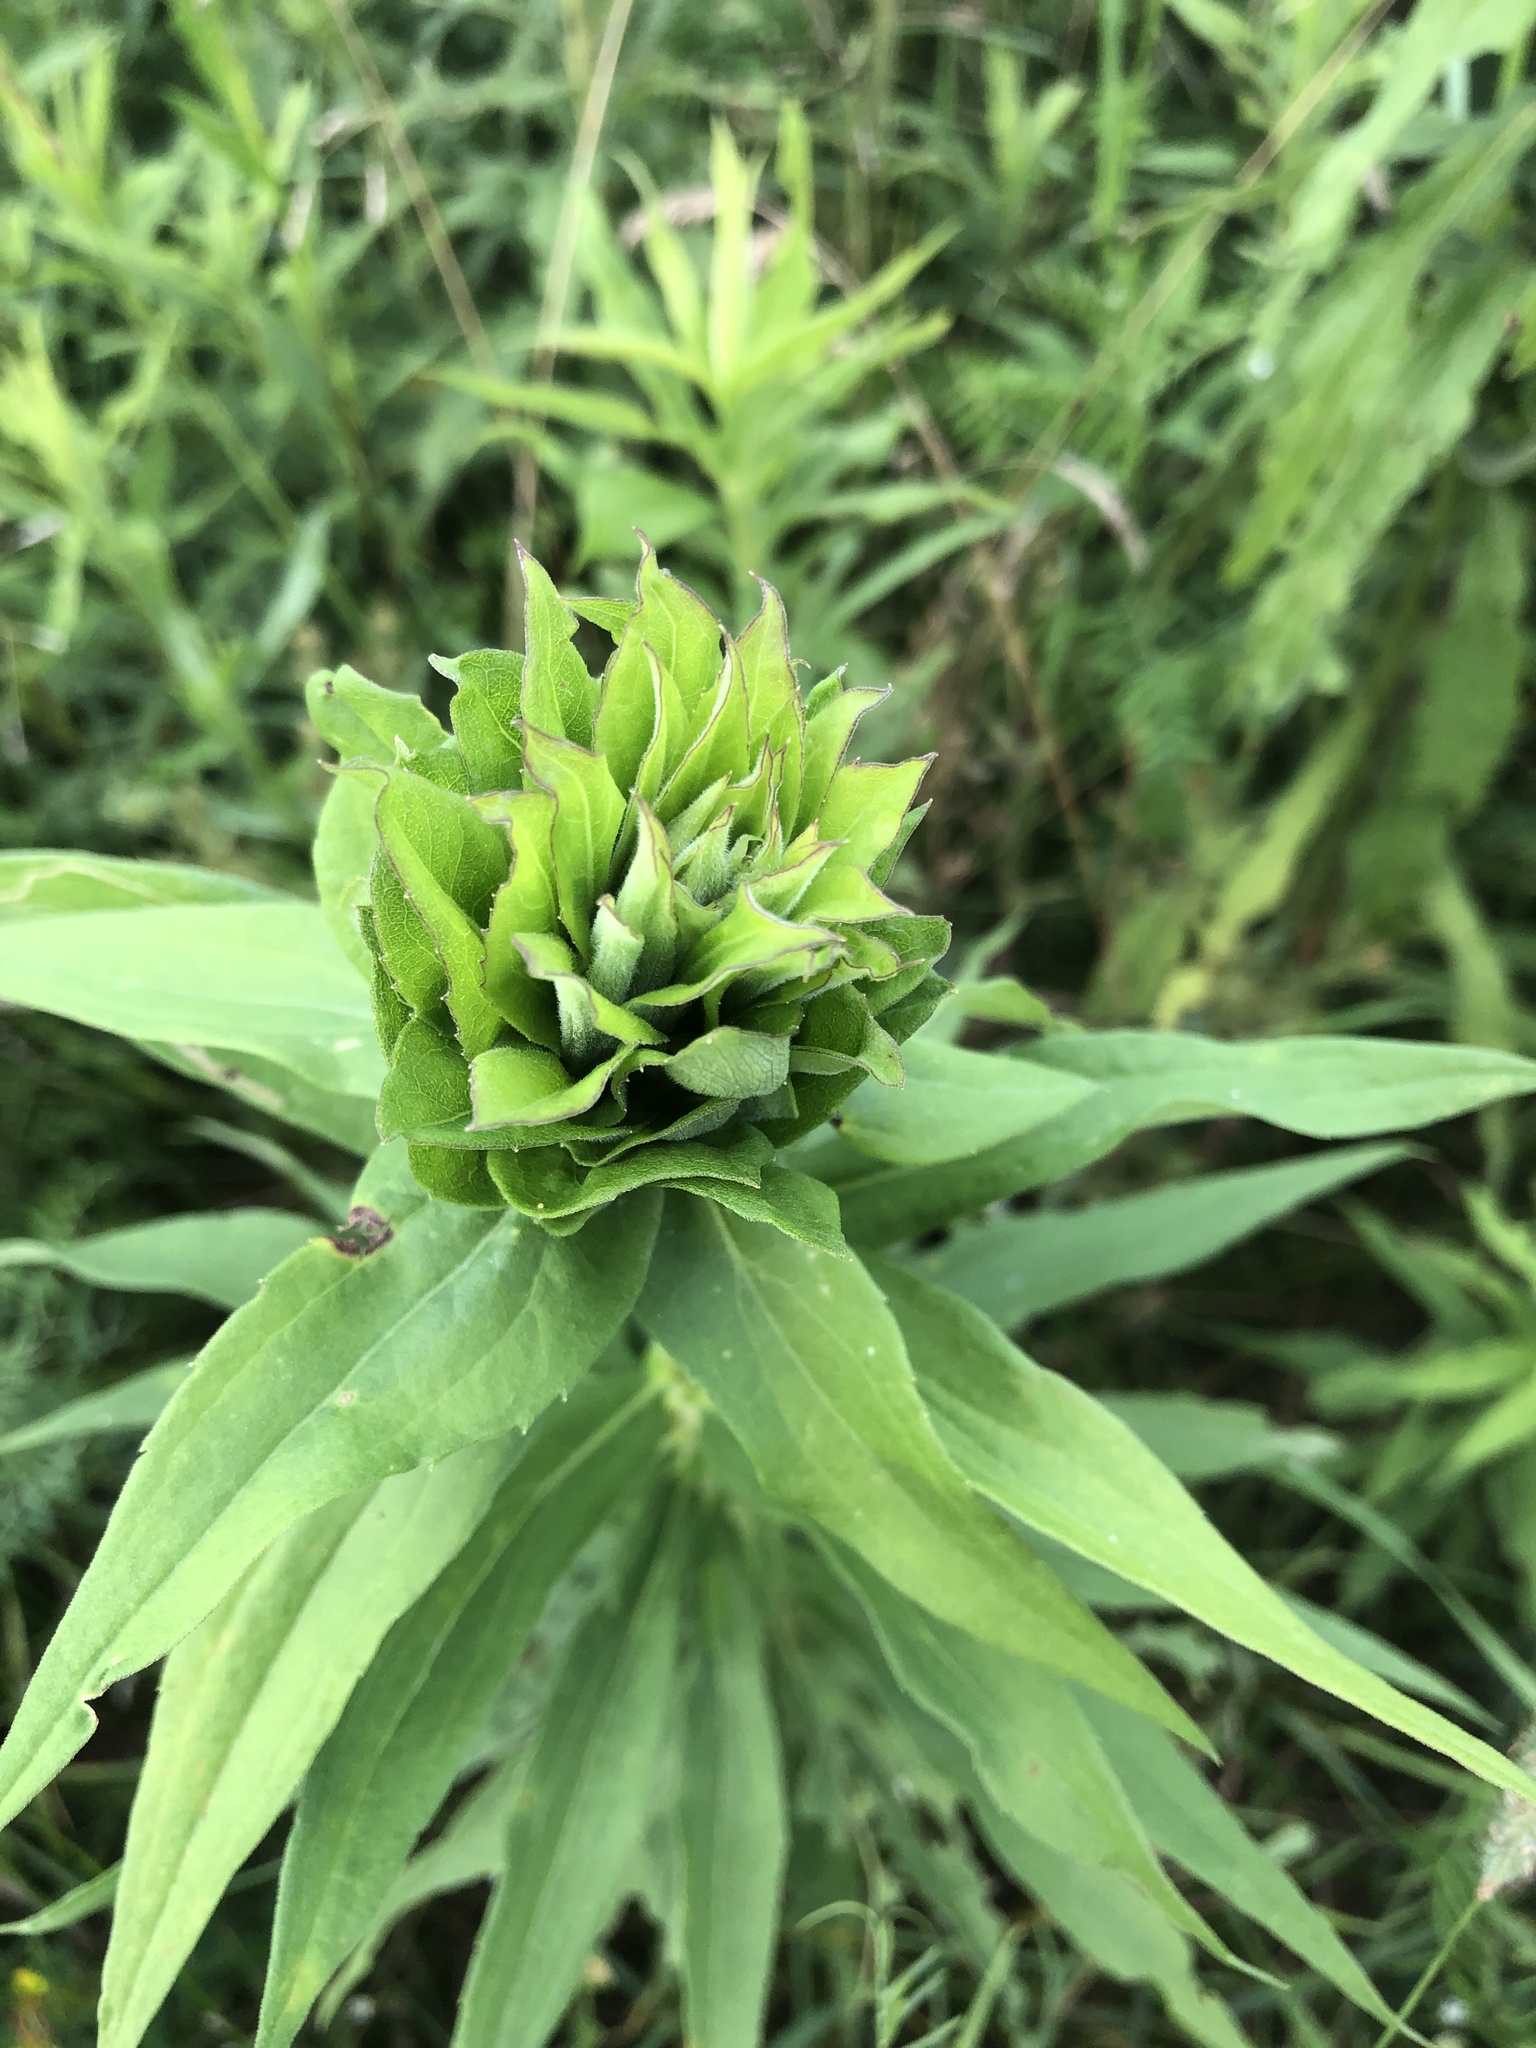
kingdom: Animalia
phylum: Arthropoda
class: Insecta
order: Diptera
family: Cecidomyiidae
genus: Rhopalomyia
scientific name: Rhopalomyia solidaginis
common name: Goldenrod bunch gall midge
